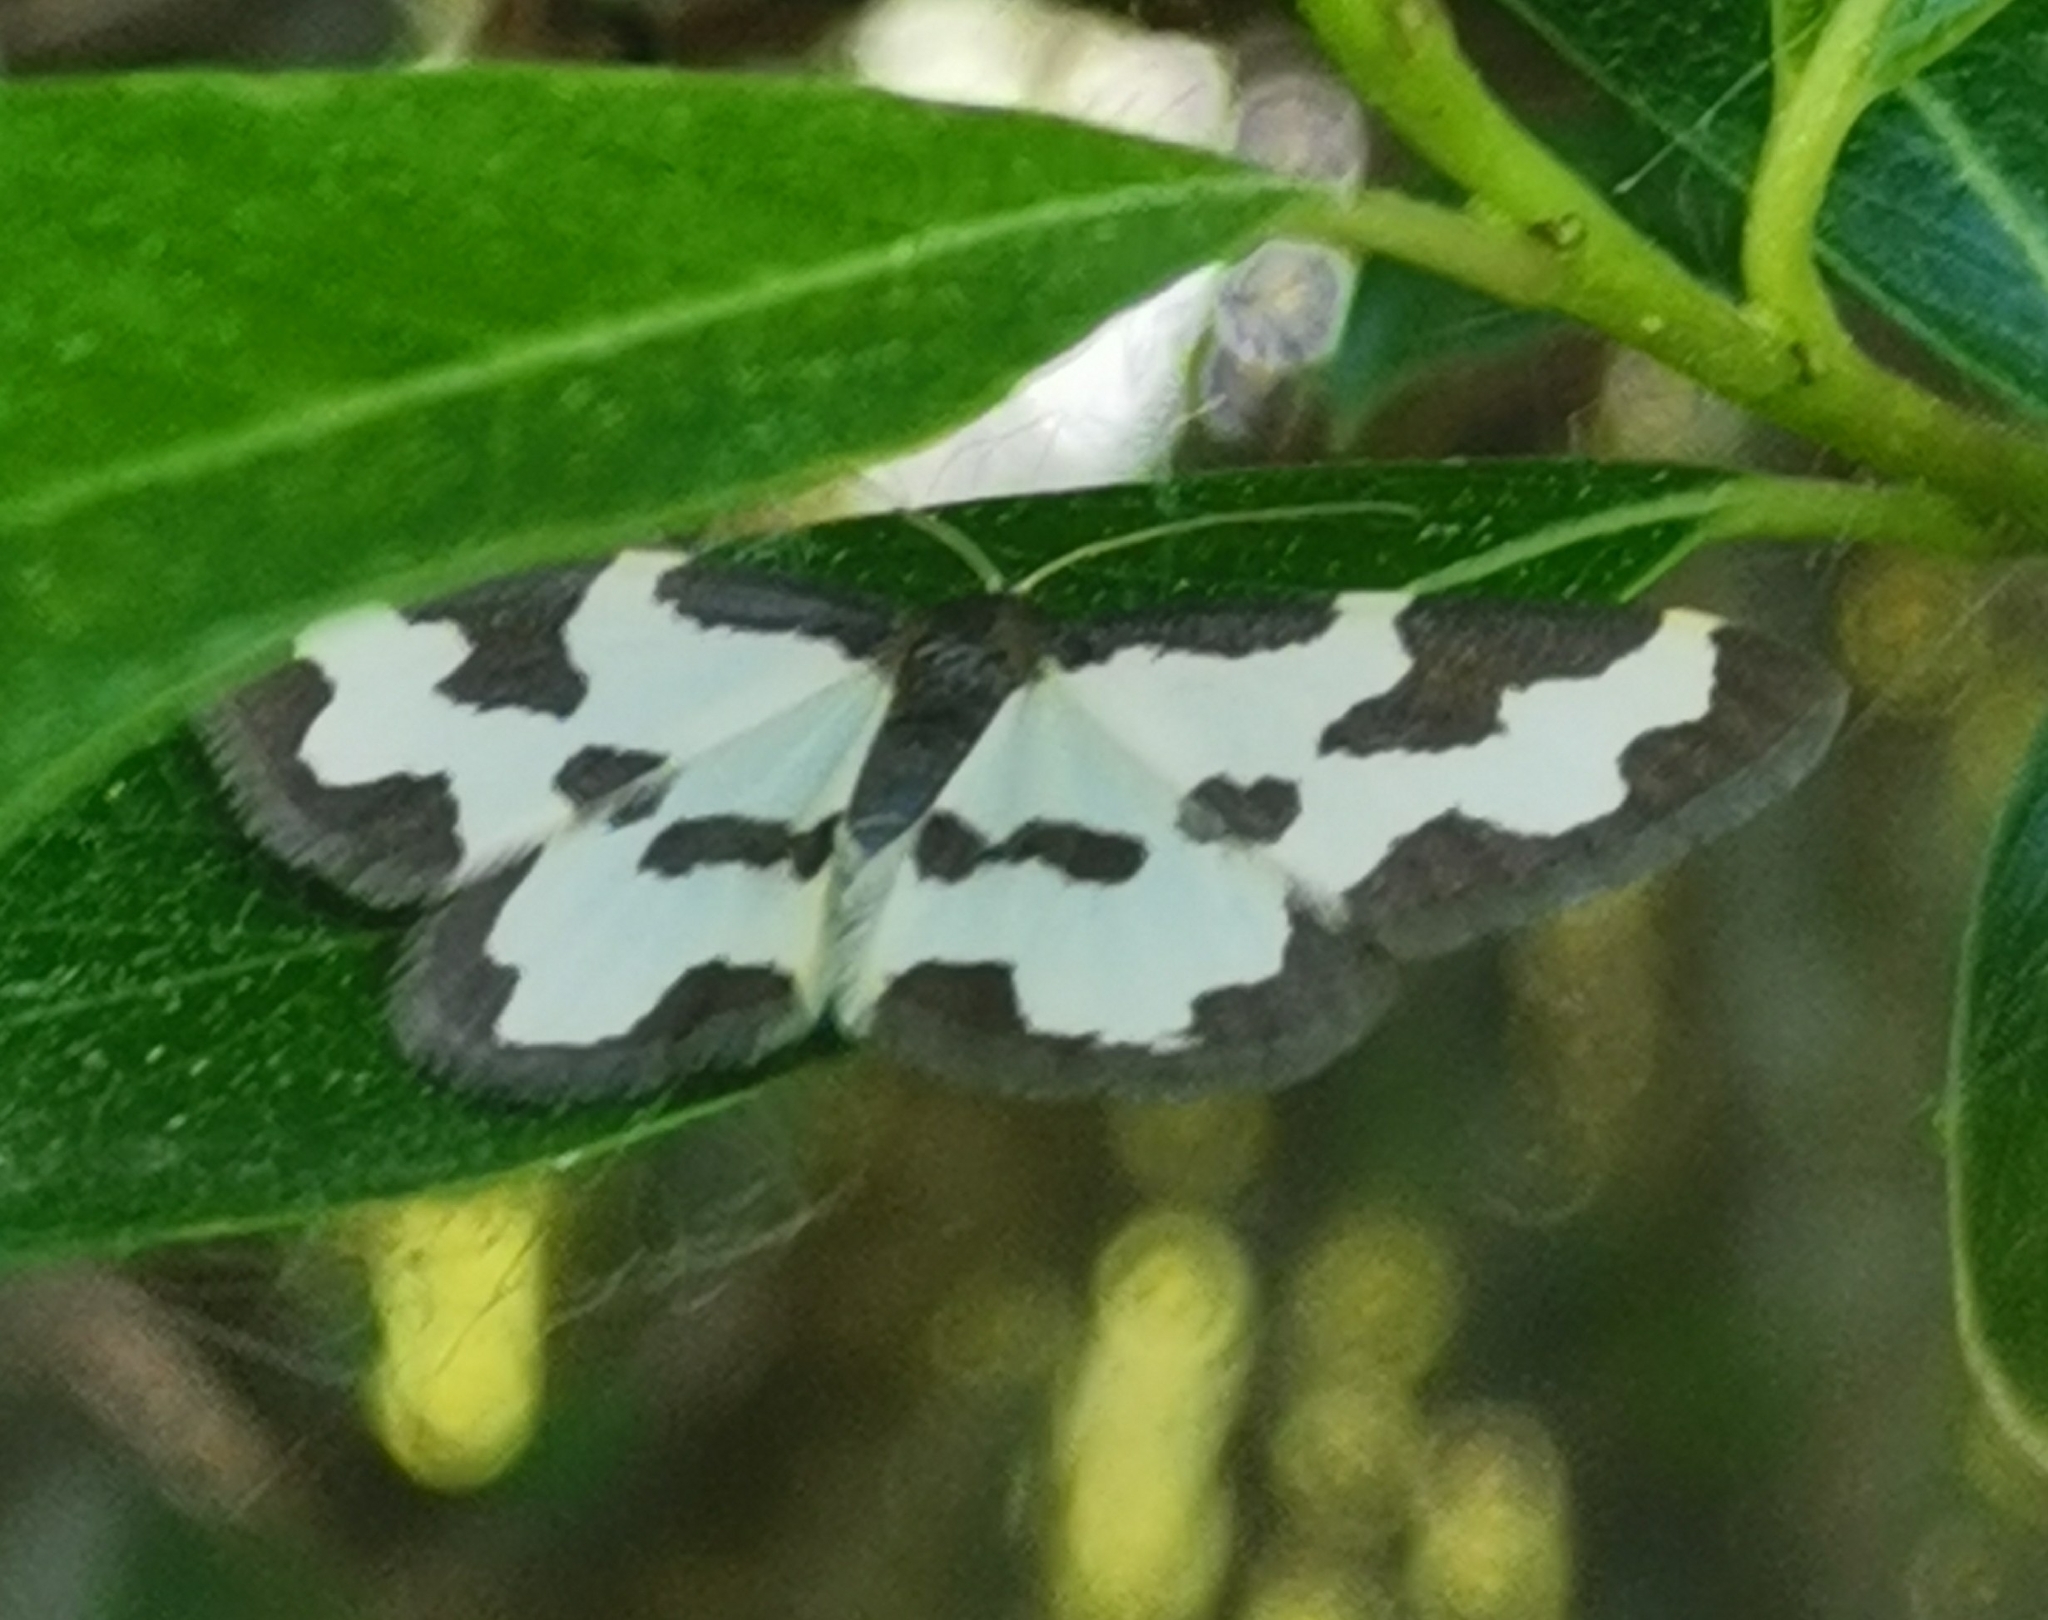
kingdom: Animalia
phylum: Arthropoda
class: Insecta
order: Lepidoptera
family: Geometridae
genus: Lomaspilis
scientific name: Lomaspilis marginata
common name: Clouded border
